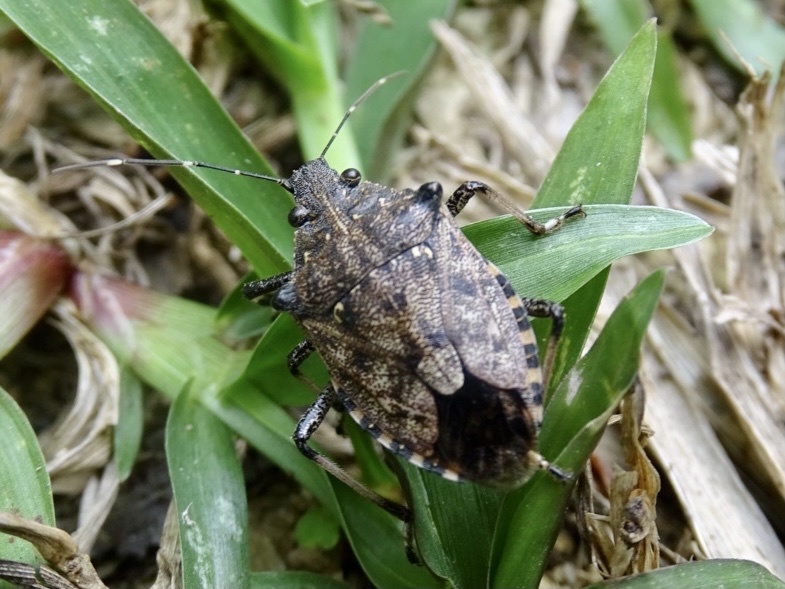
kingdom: Animalia
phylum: Arthropoda
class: Insecta
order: Hemiptera
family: Pentatomidae
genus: Dalpada
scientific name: Dalpada nodifera
